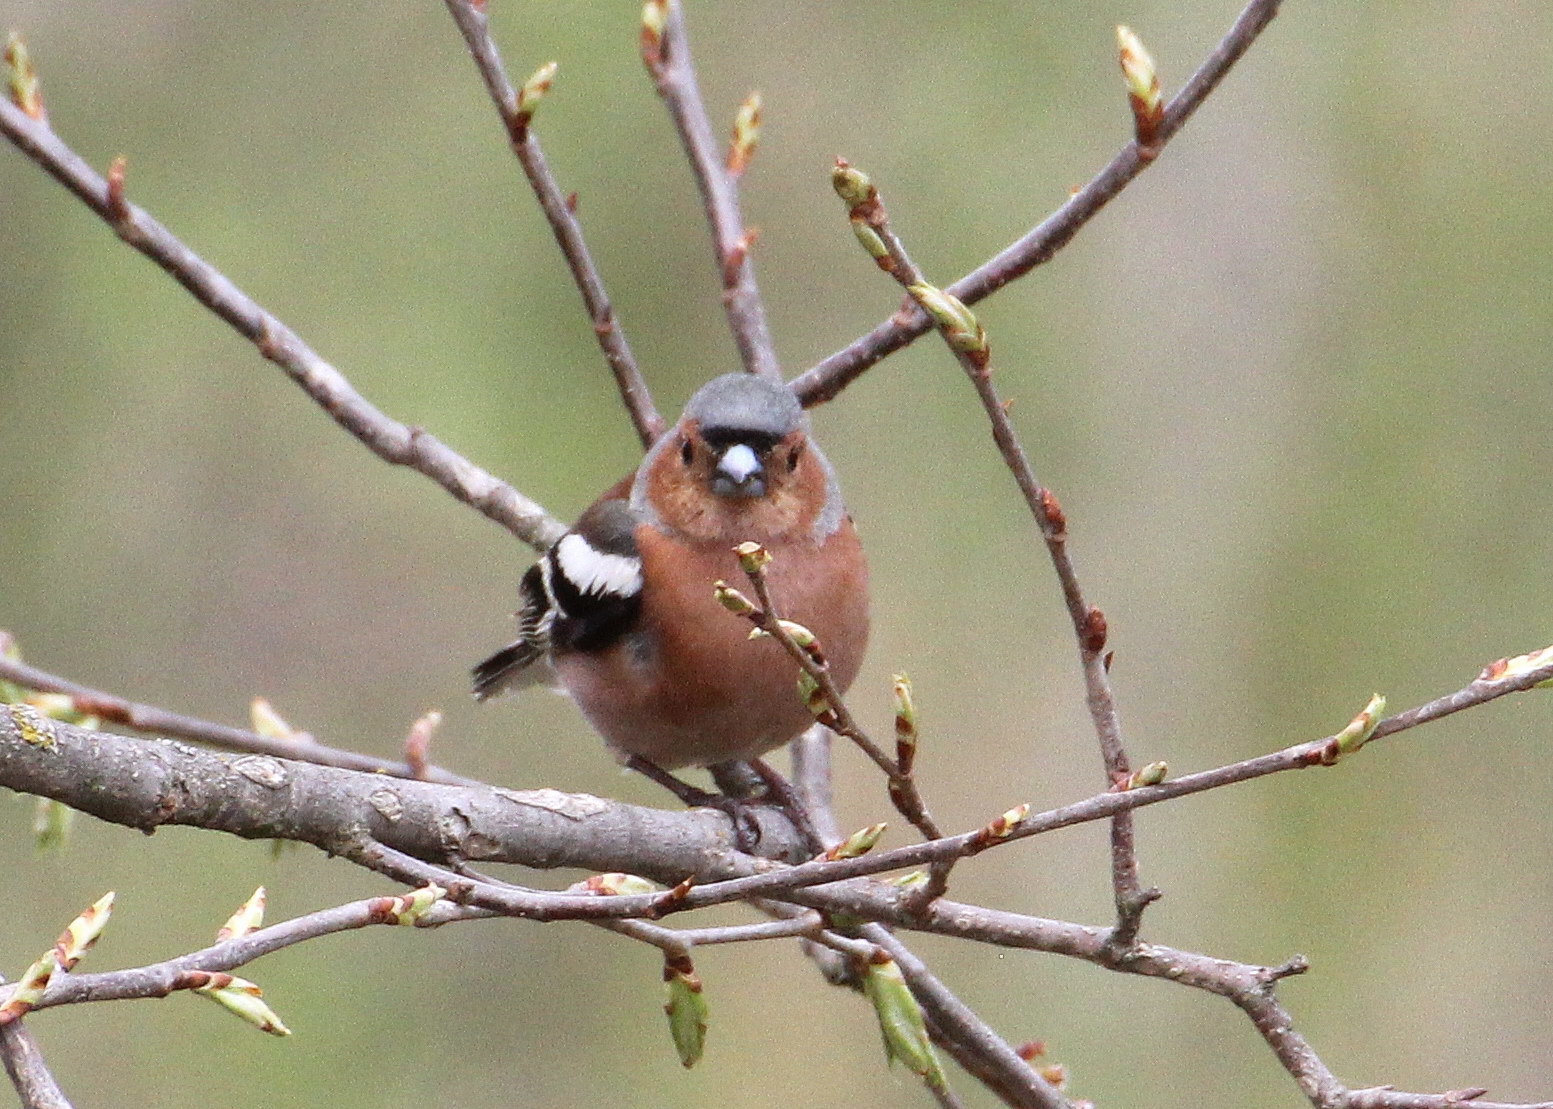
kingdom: Animalia
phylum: Chordata
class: Aves
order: Passeriformes
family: Fringillidae
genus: Fringilla
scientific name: Fringilla coelebs
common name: Common chaffinch
